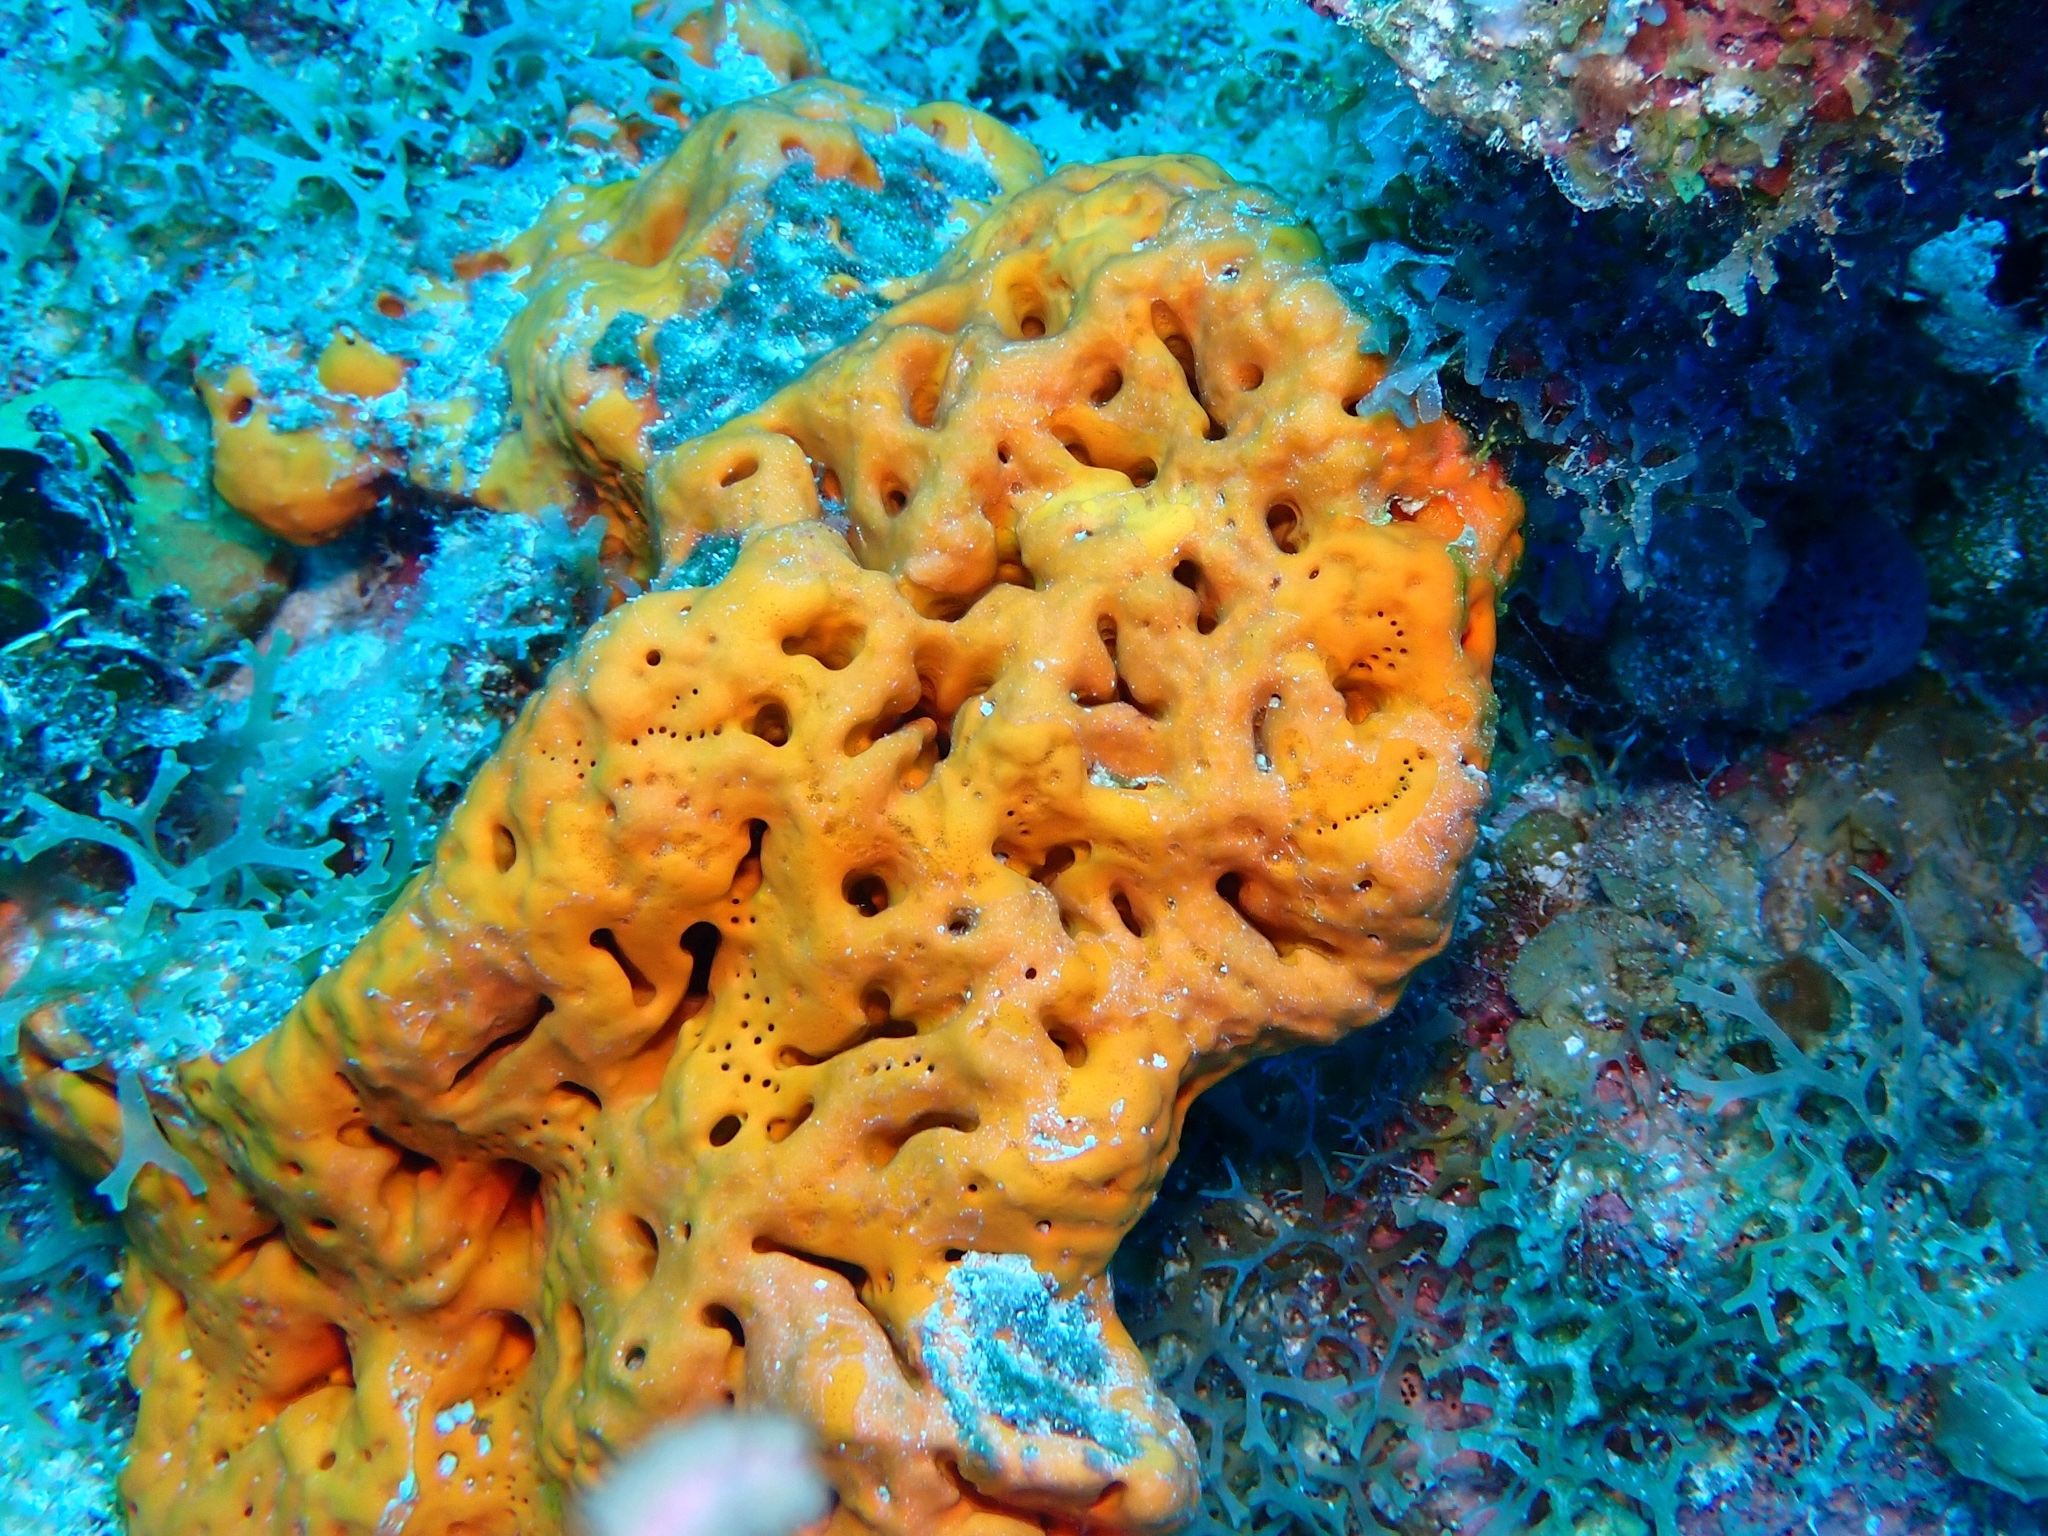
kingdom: Animalia
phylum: Porifera
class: Demospongiae
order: Agelasida
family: Agelasidae
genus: Agelas
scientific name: Agelas clathrodes
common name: Orange elephant ear sponge
